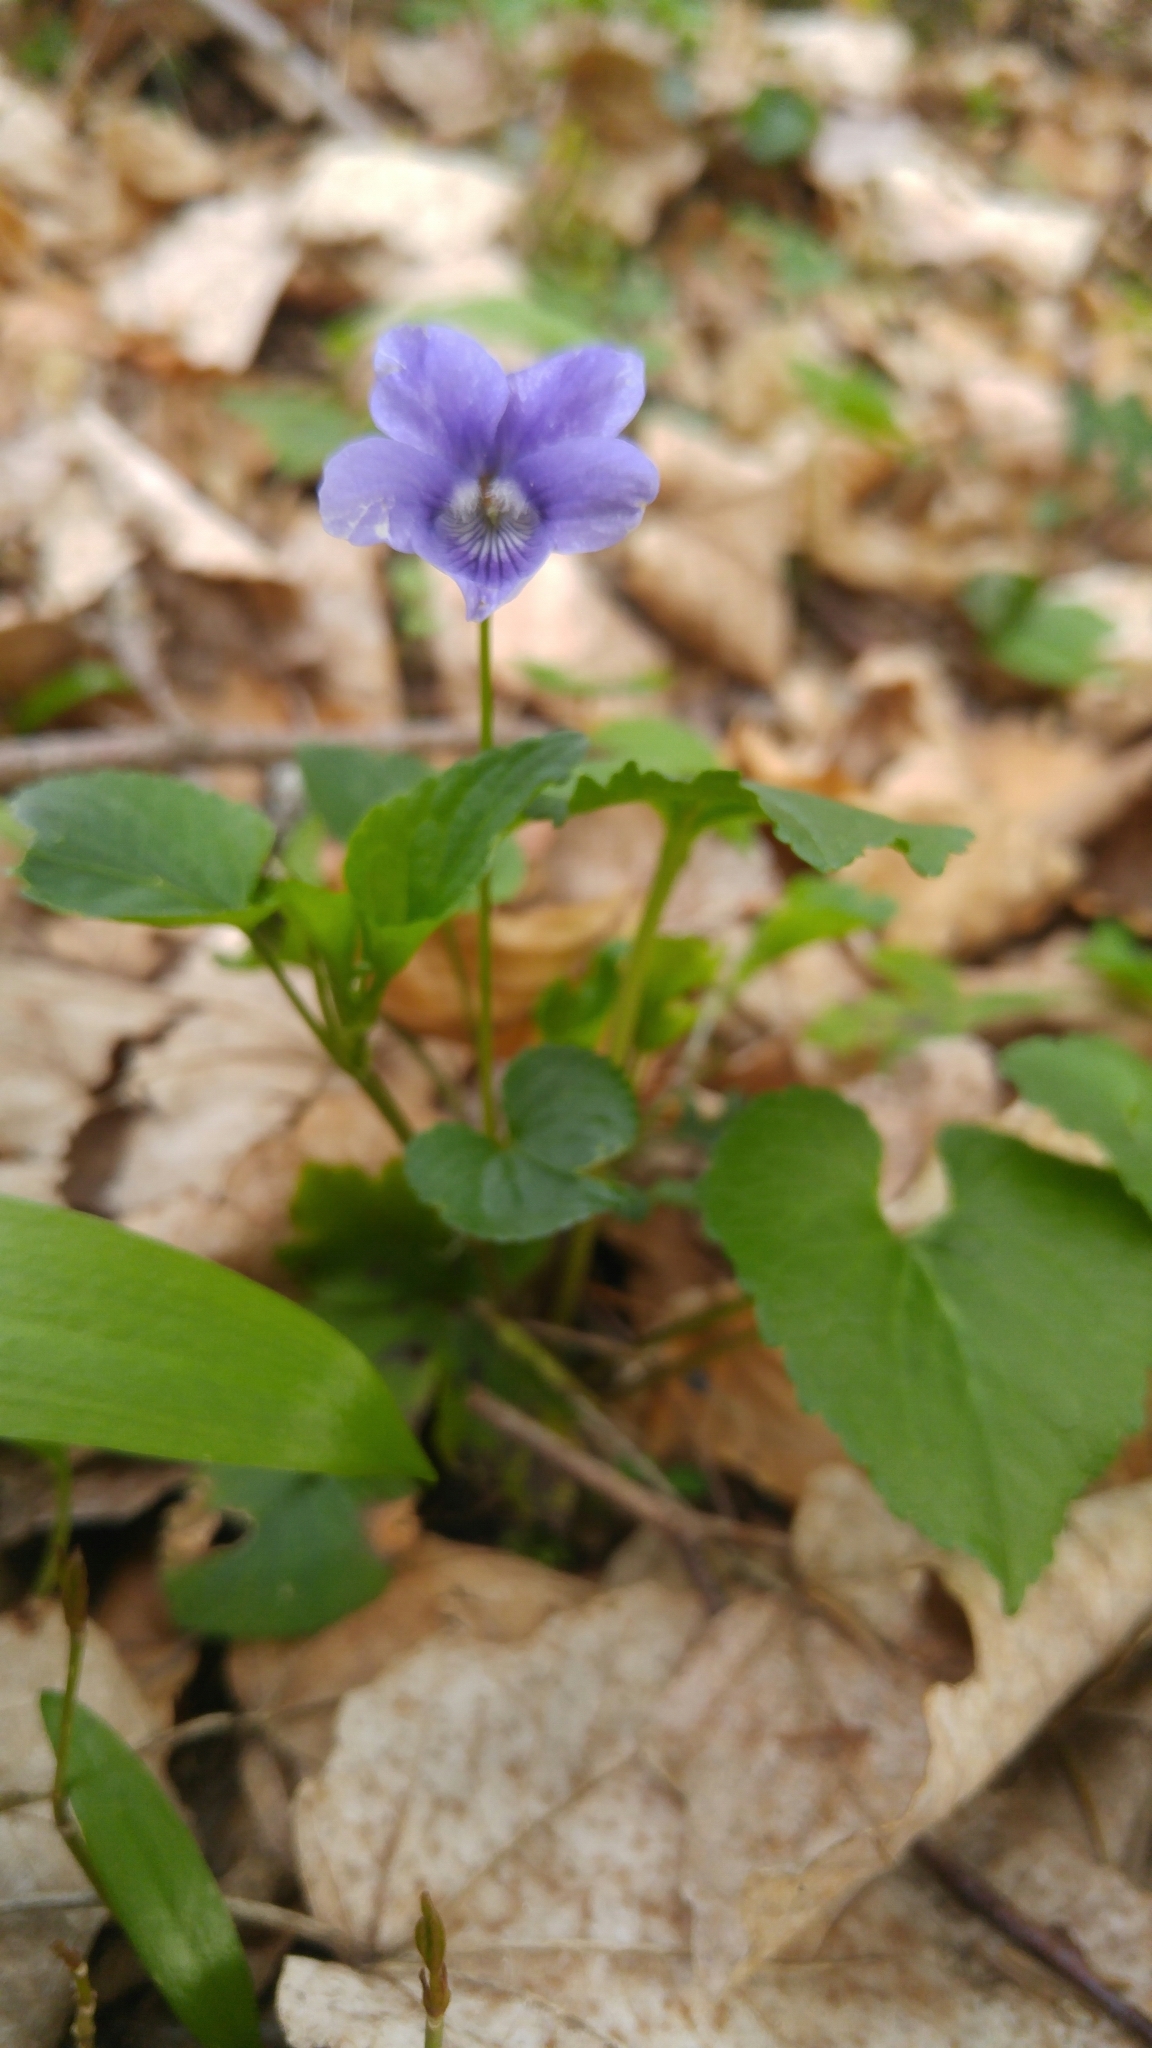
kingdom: Plantae
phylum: Tracheophyta
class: Magnoliopsida
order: Malpighiales
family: Violaceae
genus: Viola
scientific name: Viola odorata
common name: Sweet violet
